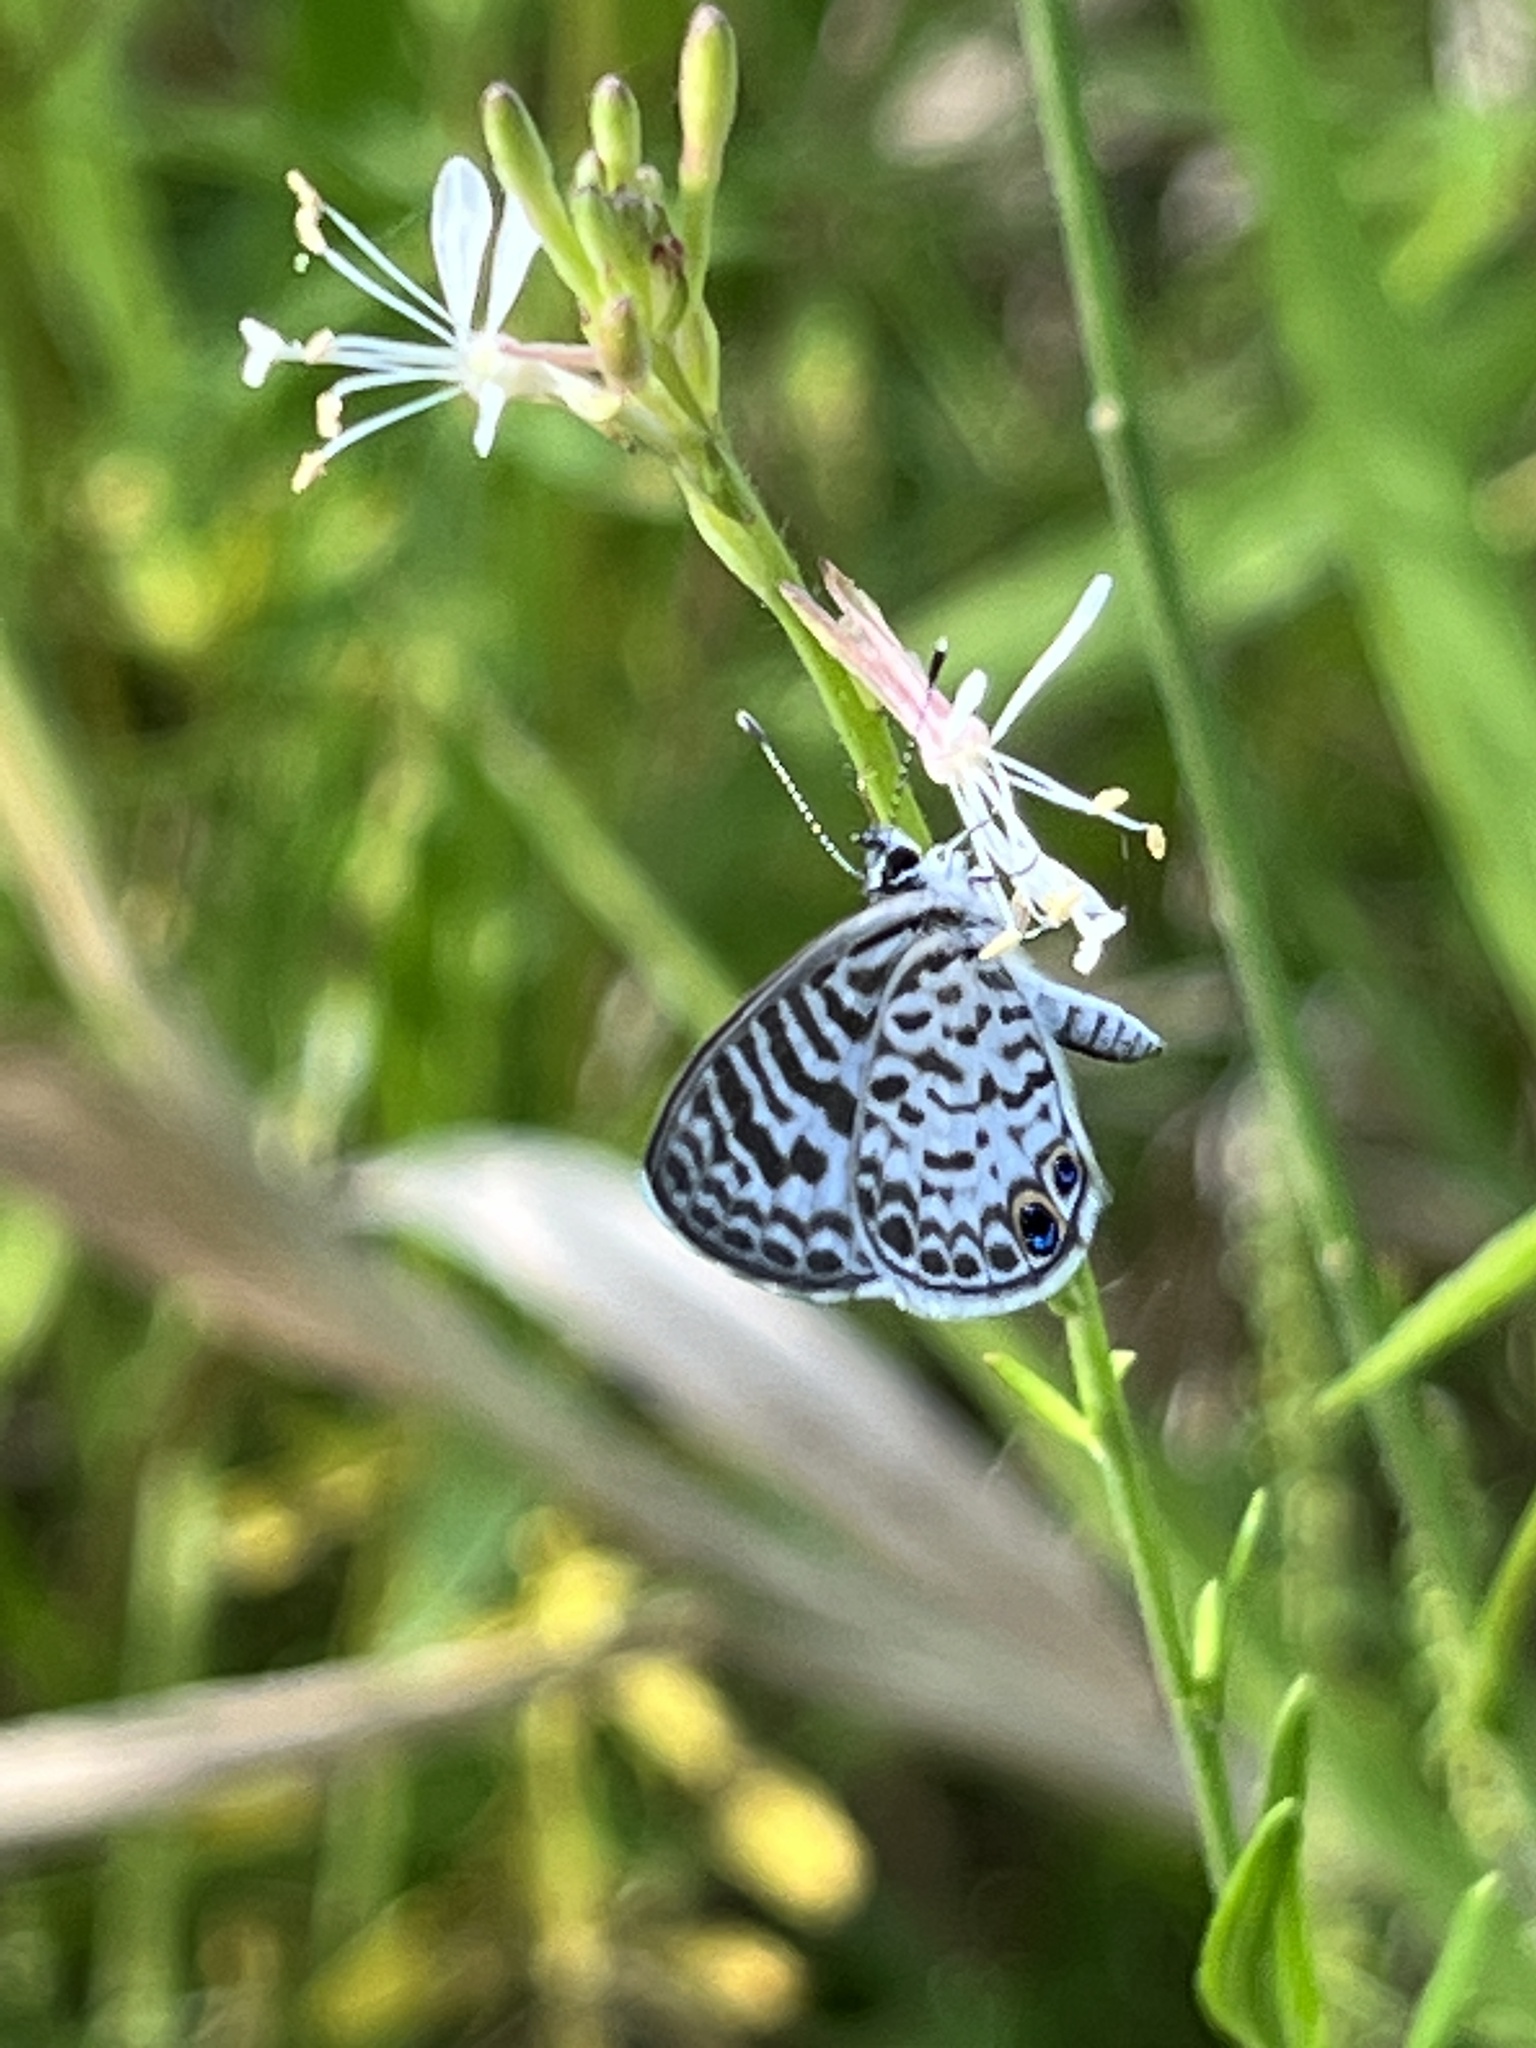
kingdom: Animalia
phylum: Arthropoda
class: Insecta
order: Lepidoptera
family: Lycaenidae
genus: Leptotes
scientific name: Leptotes cassius
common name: Cassius blue
